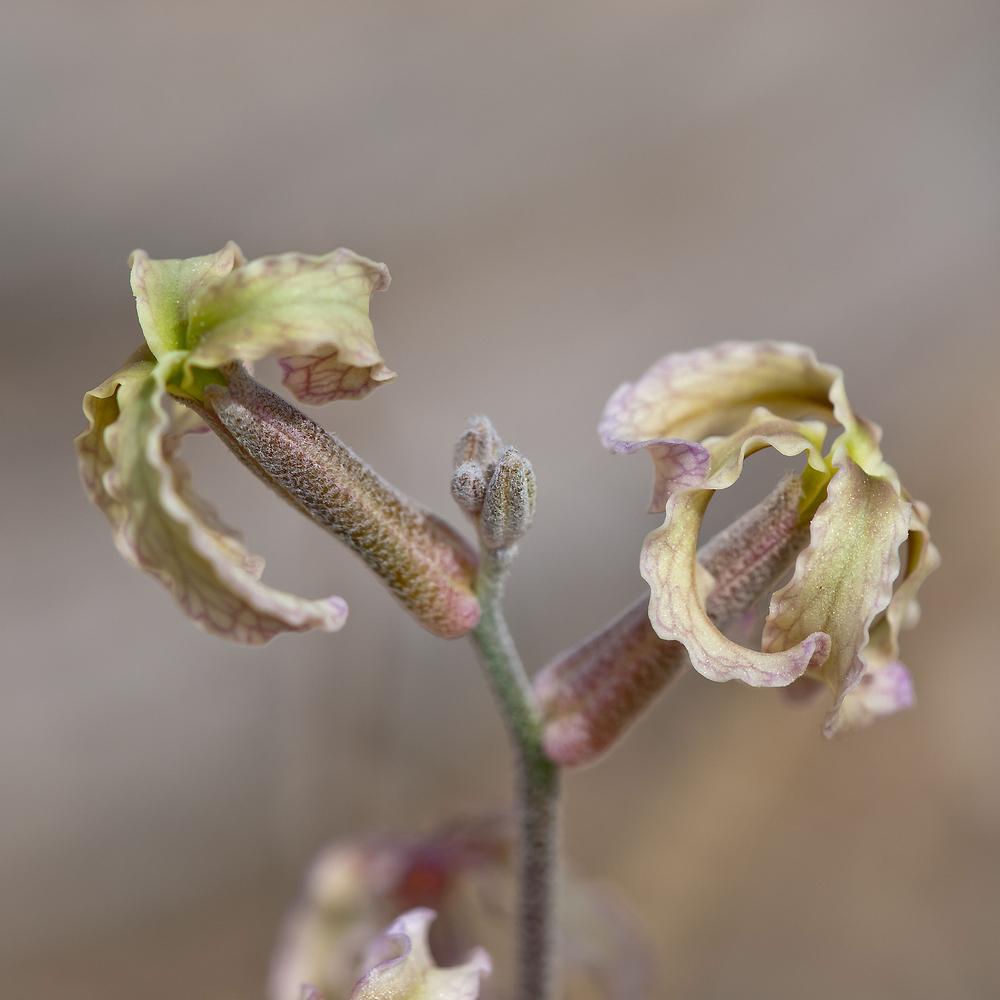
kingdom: Plantae
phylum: Tracheophyta
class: Magnoliopsida
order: Brassicales
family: Brassicaceae
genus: Matthiola
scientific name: Matthiola fruticulosa
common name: Sad stock
